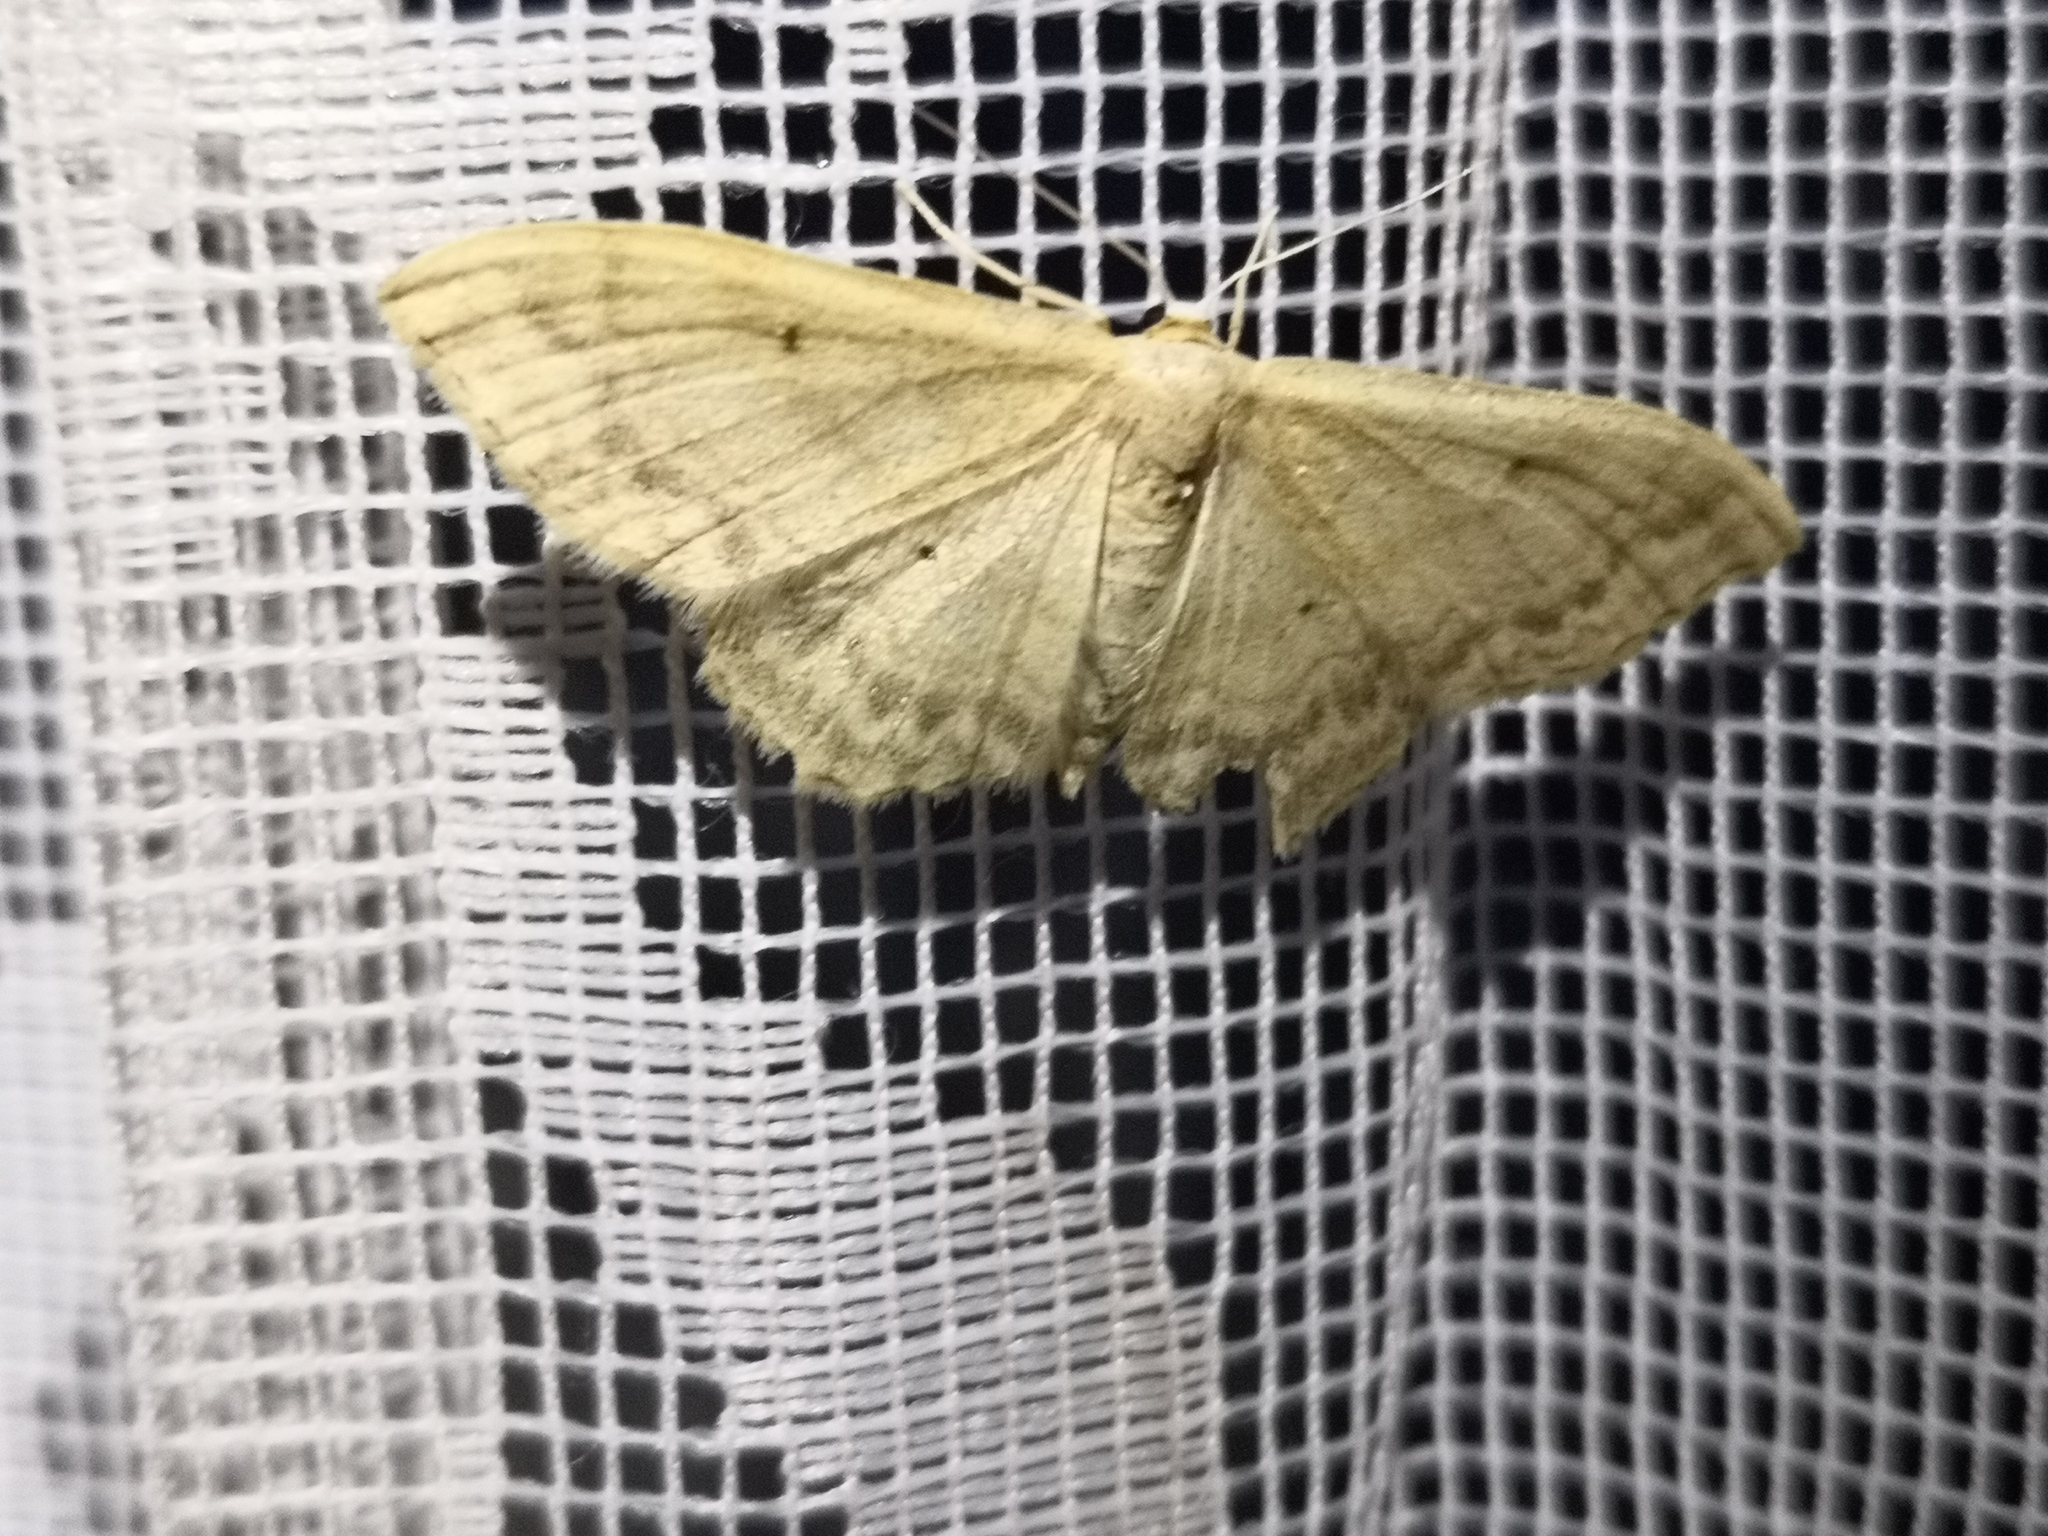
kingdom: Animalia
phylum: Arthropoda
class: Insecta
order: Lepidoptera
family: Geometridae
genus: Idaea
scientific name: Idaea maritimaria
